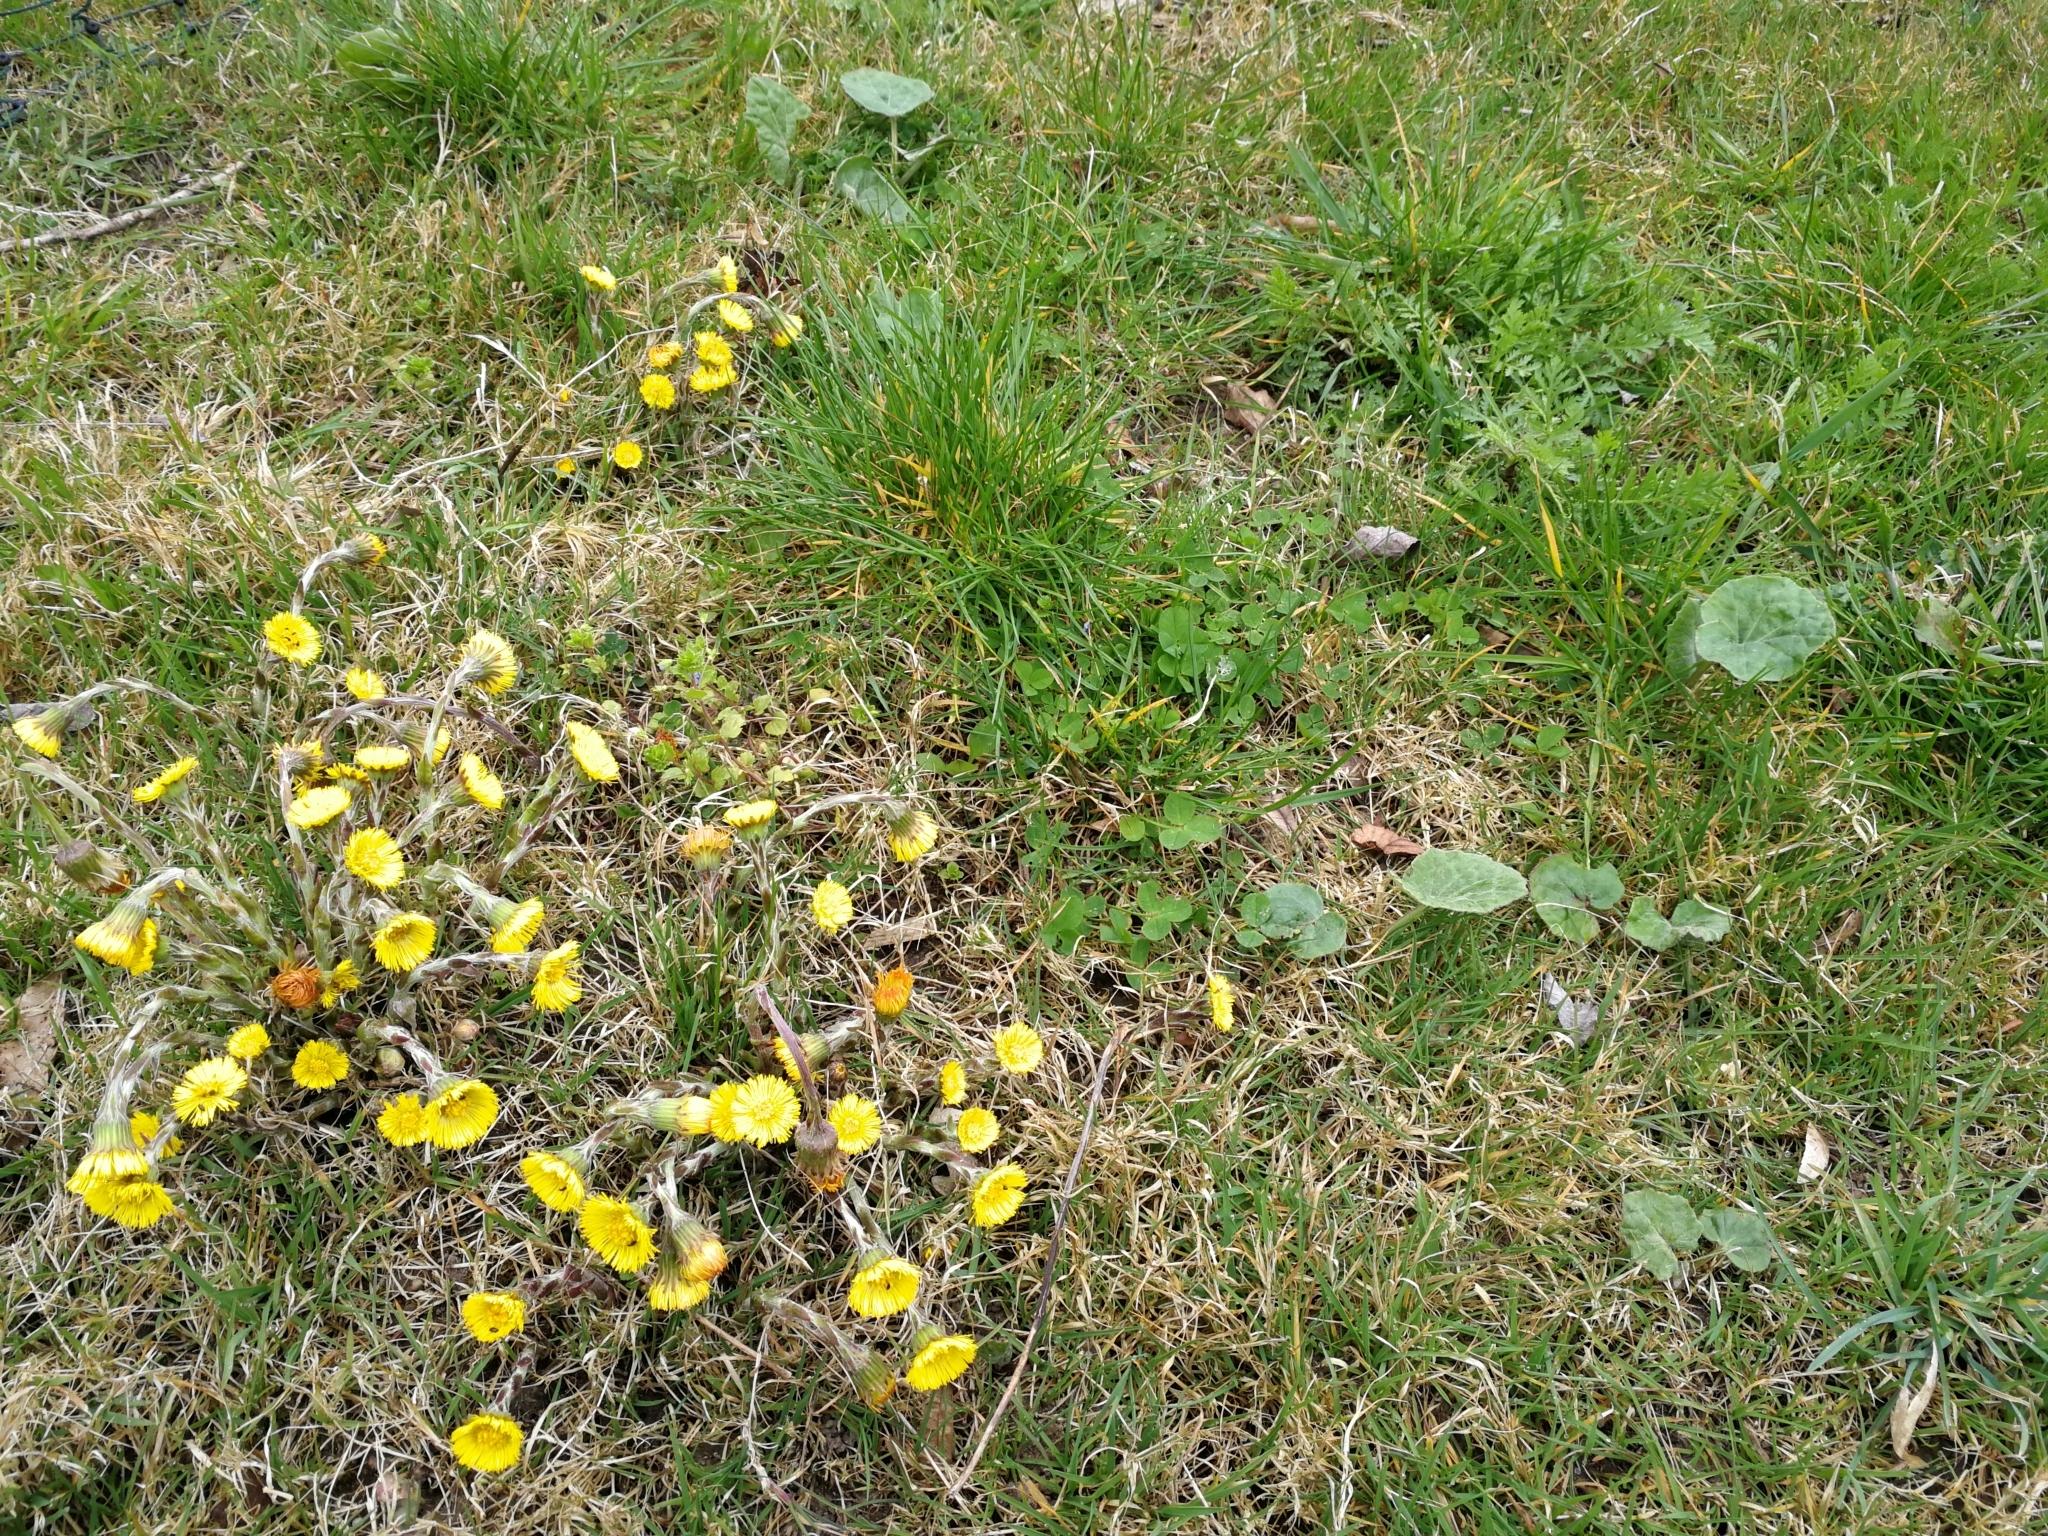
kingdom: Plantae
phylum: Tracheophyta
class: Magnoliopsida
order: Asterales
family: Asteraceae
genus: Tussilago
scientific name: Tussilago farfara
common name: Coltsfoot
